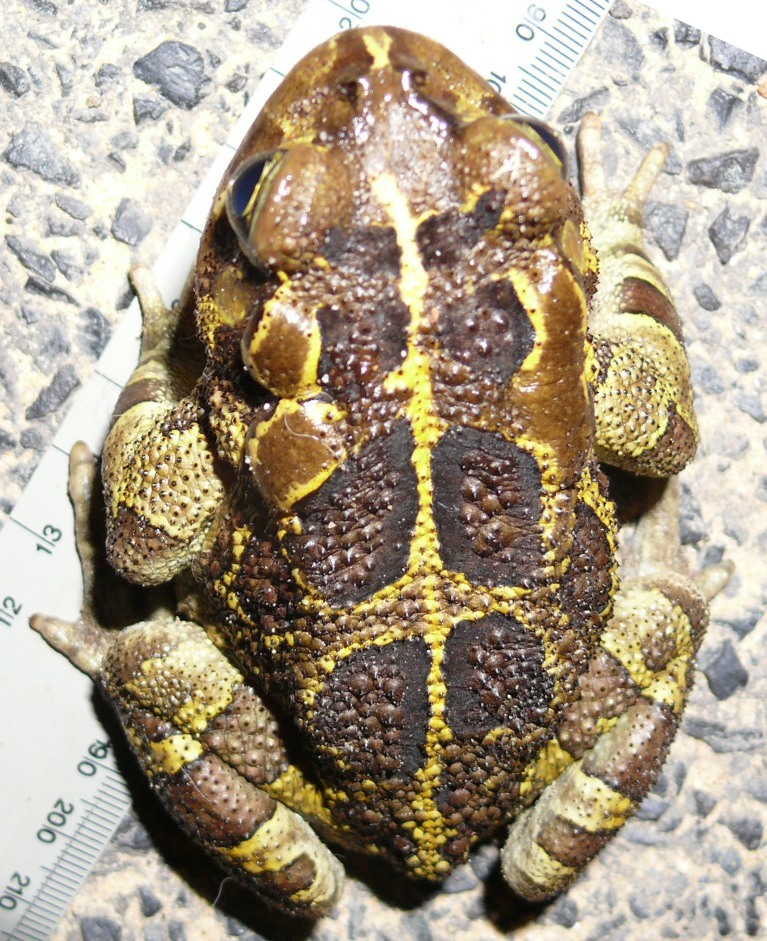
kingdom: Animalia
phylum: Chordata
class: Amphibia
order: Anura
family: Bufonidae
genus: Sclerophrys
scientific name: Sclerophrys pantherina
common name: Panther toad
